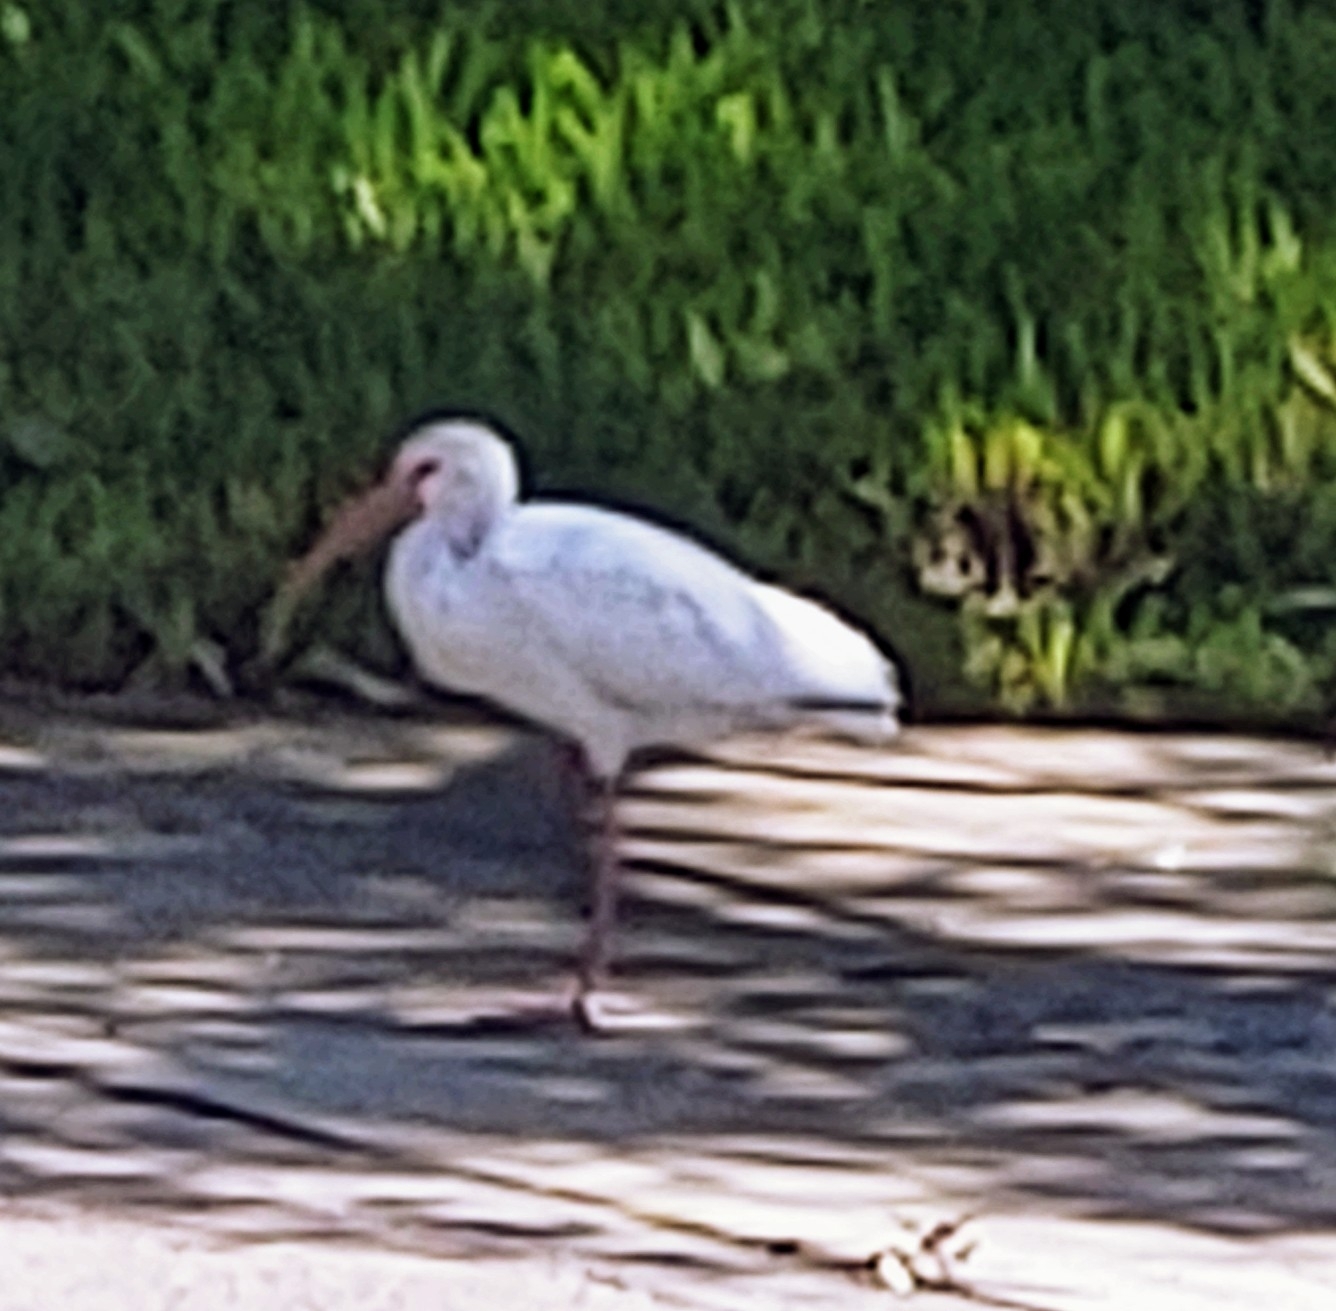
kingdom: Animalia
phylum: Chordata
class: Aves
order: Pelecaniformes
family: Threskiornithidae
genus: Eudocimus
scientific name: Eudocimus albus
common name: White ibis
